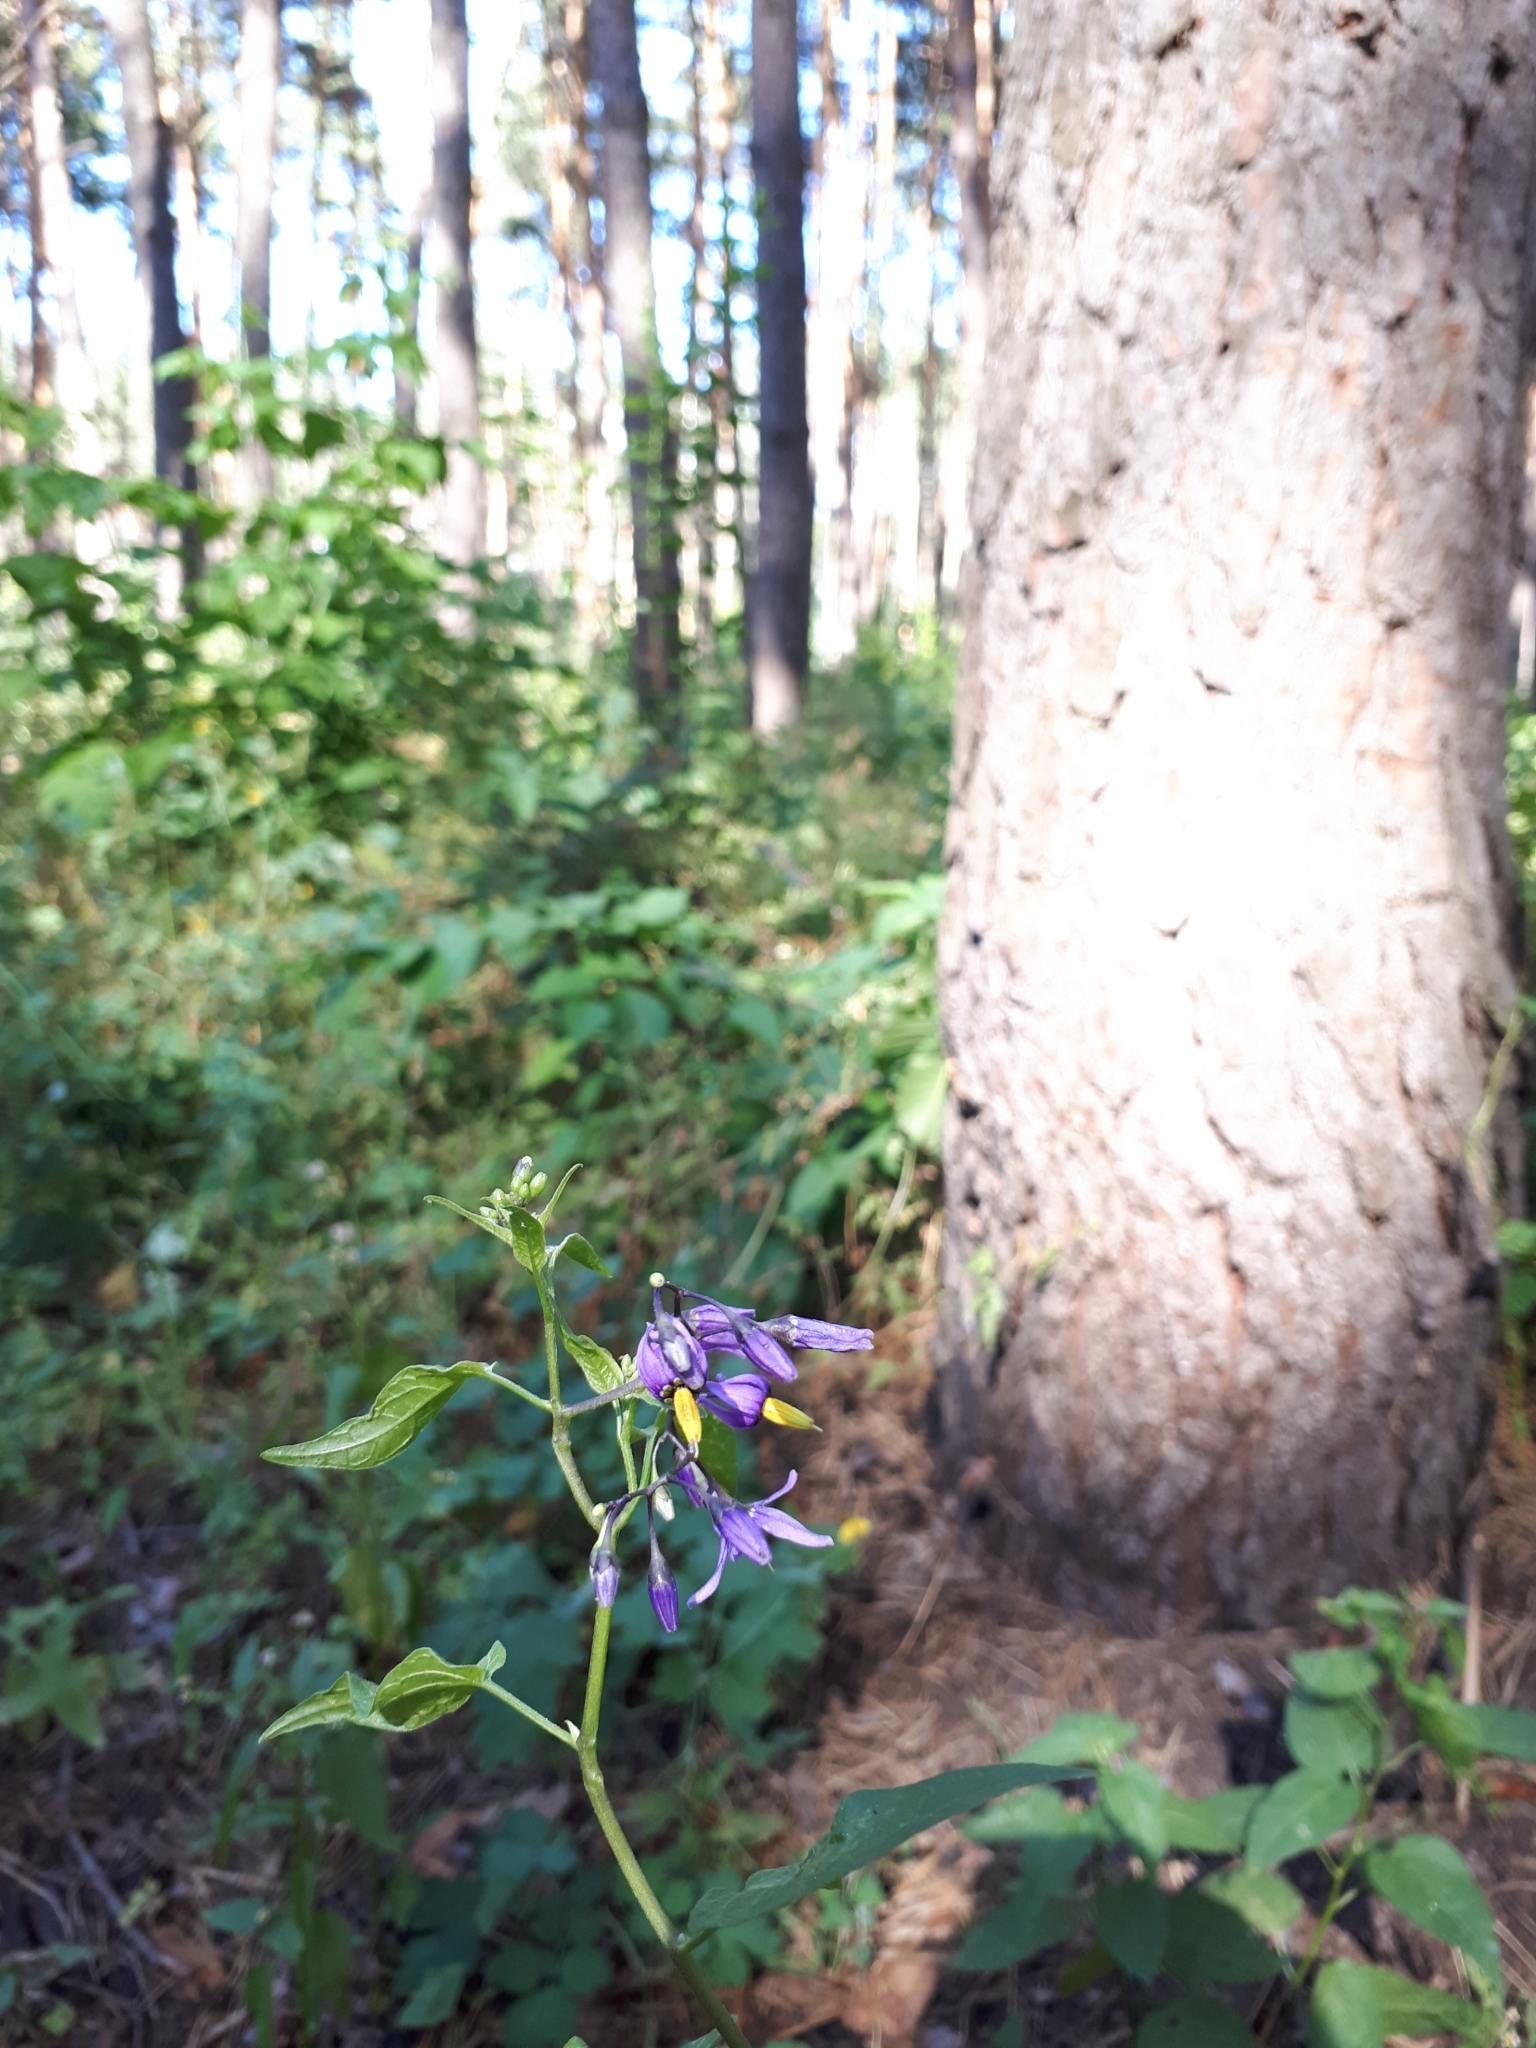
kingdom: Plantae
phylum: Tracheophyta
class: Magnoliopsida
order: Solanales
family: Solanaceae
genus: Solanum
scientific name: Solanum dulcamara
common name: Climbing nightshade
